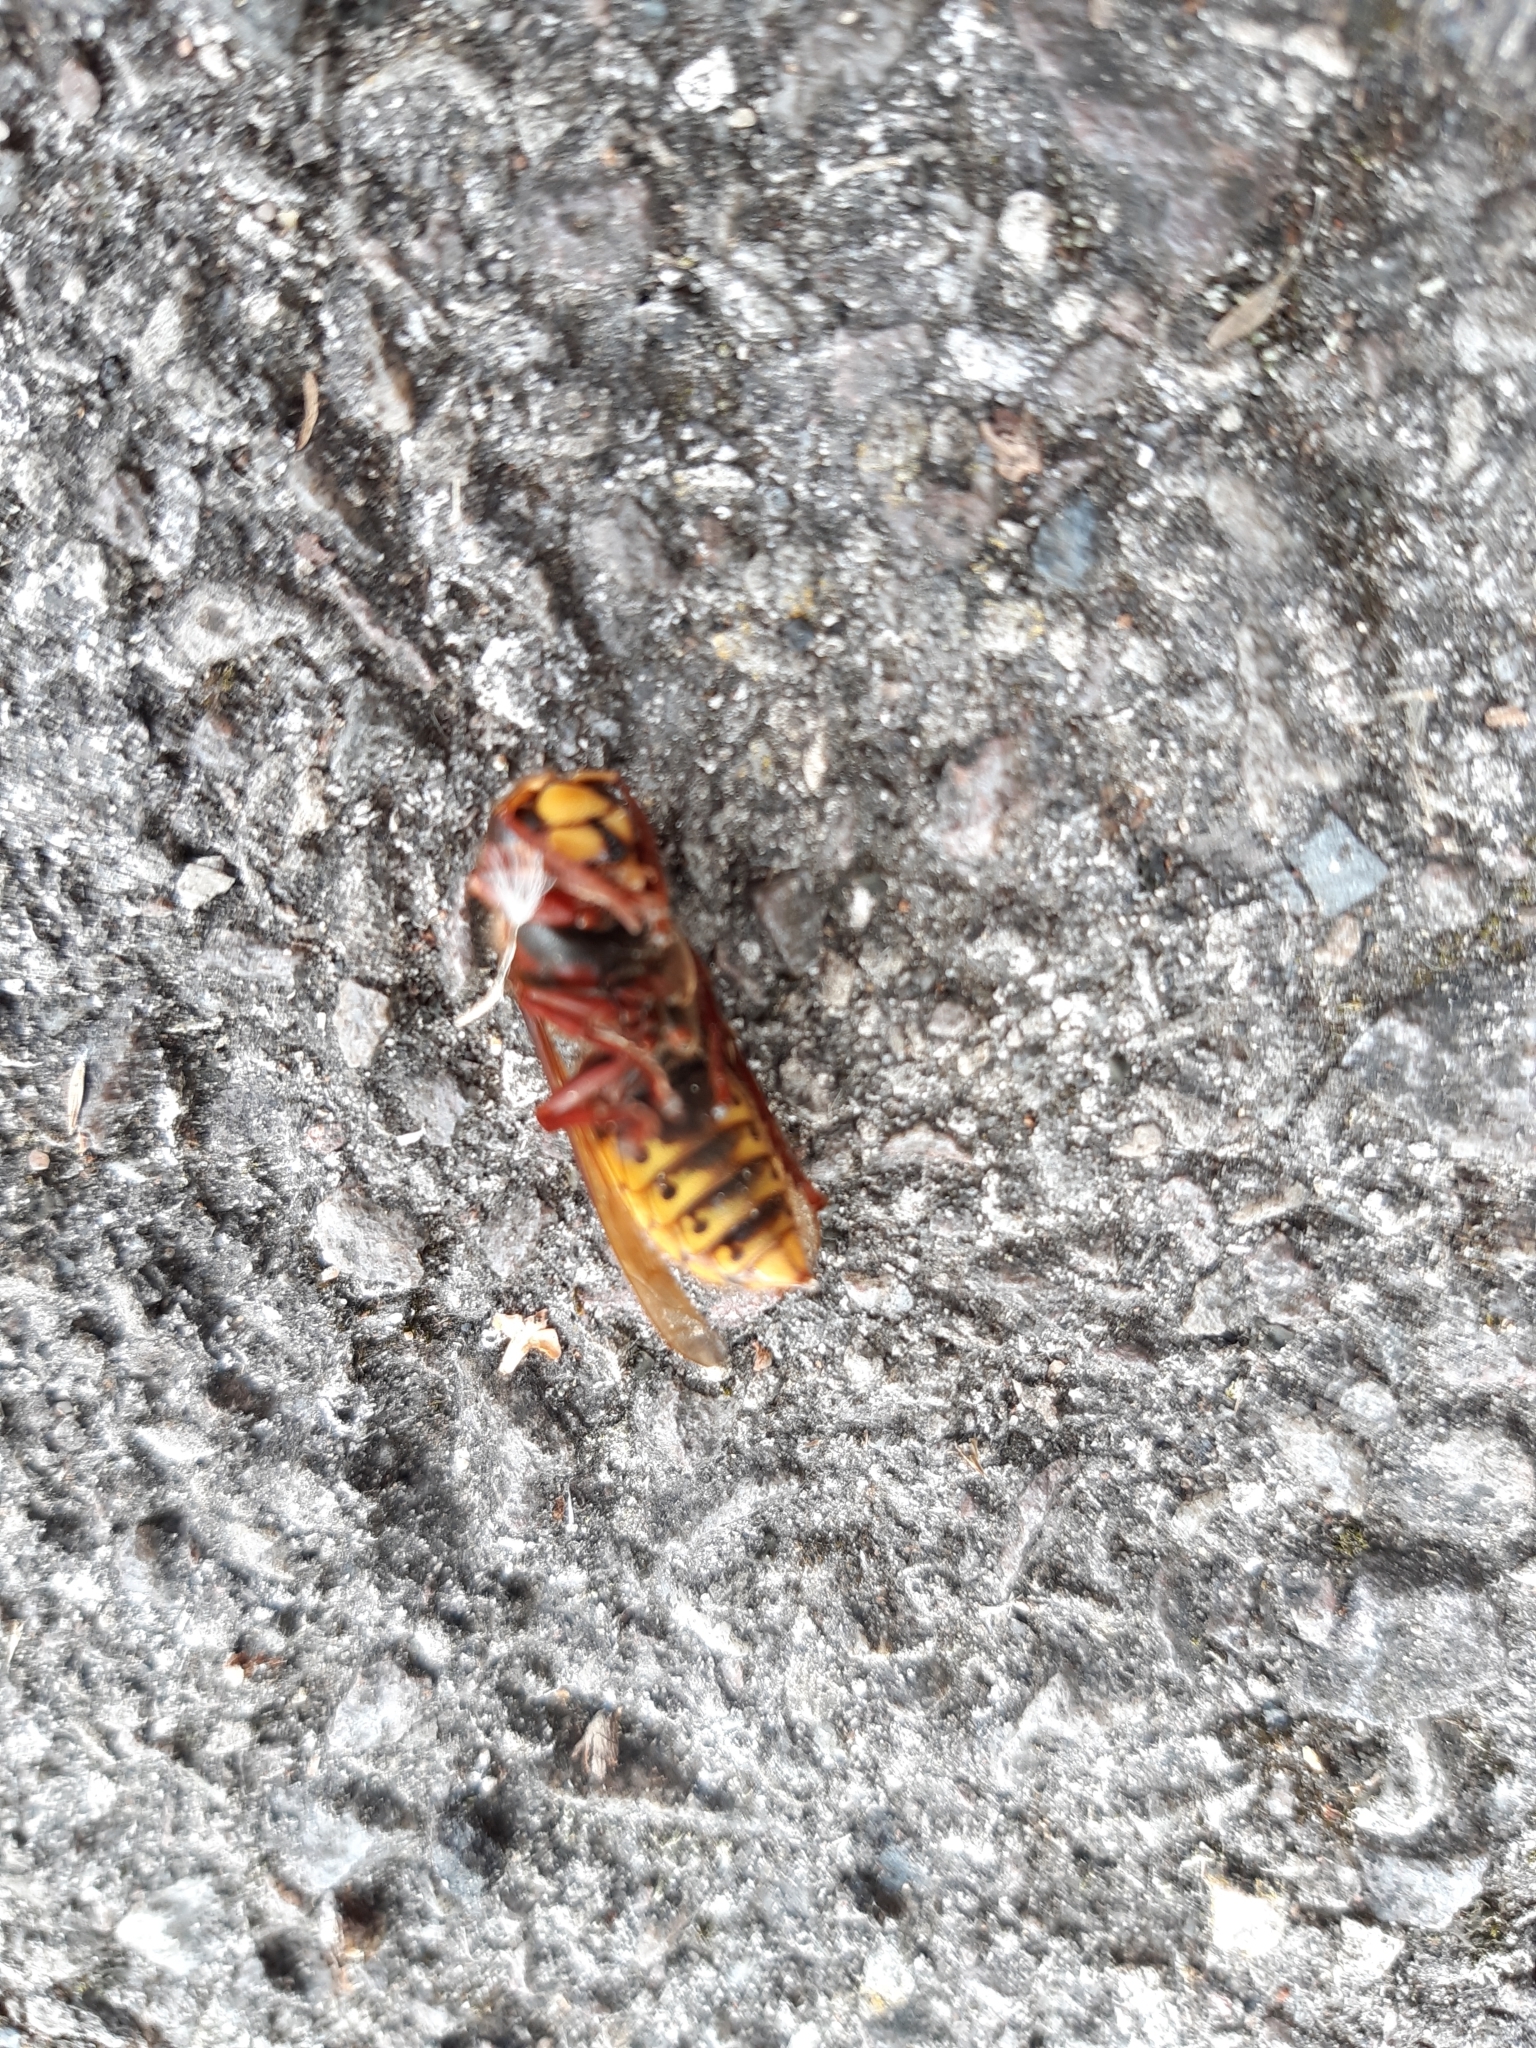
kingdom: Animalia
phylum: Arthropoda
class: Insecta
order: Hymenoptera
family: Vespidae
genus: Vespa
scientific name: Vespa crabro
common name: Hornet
